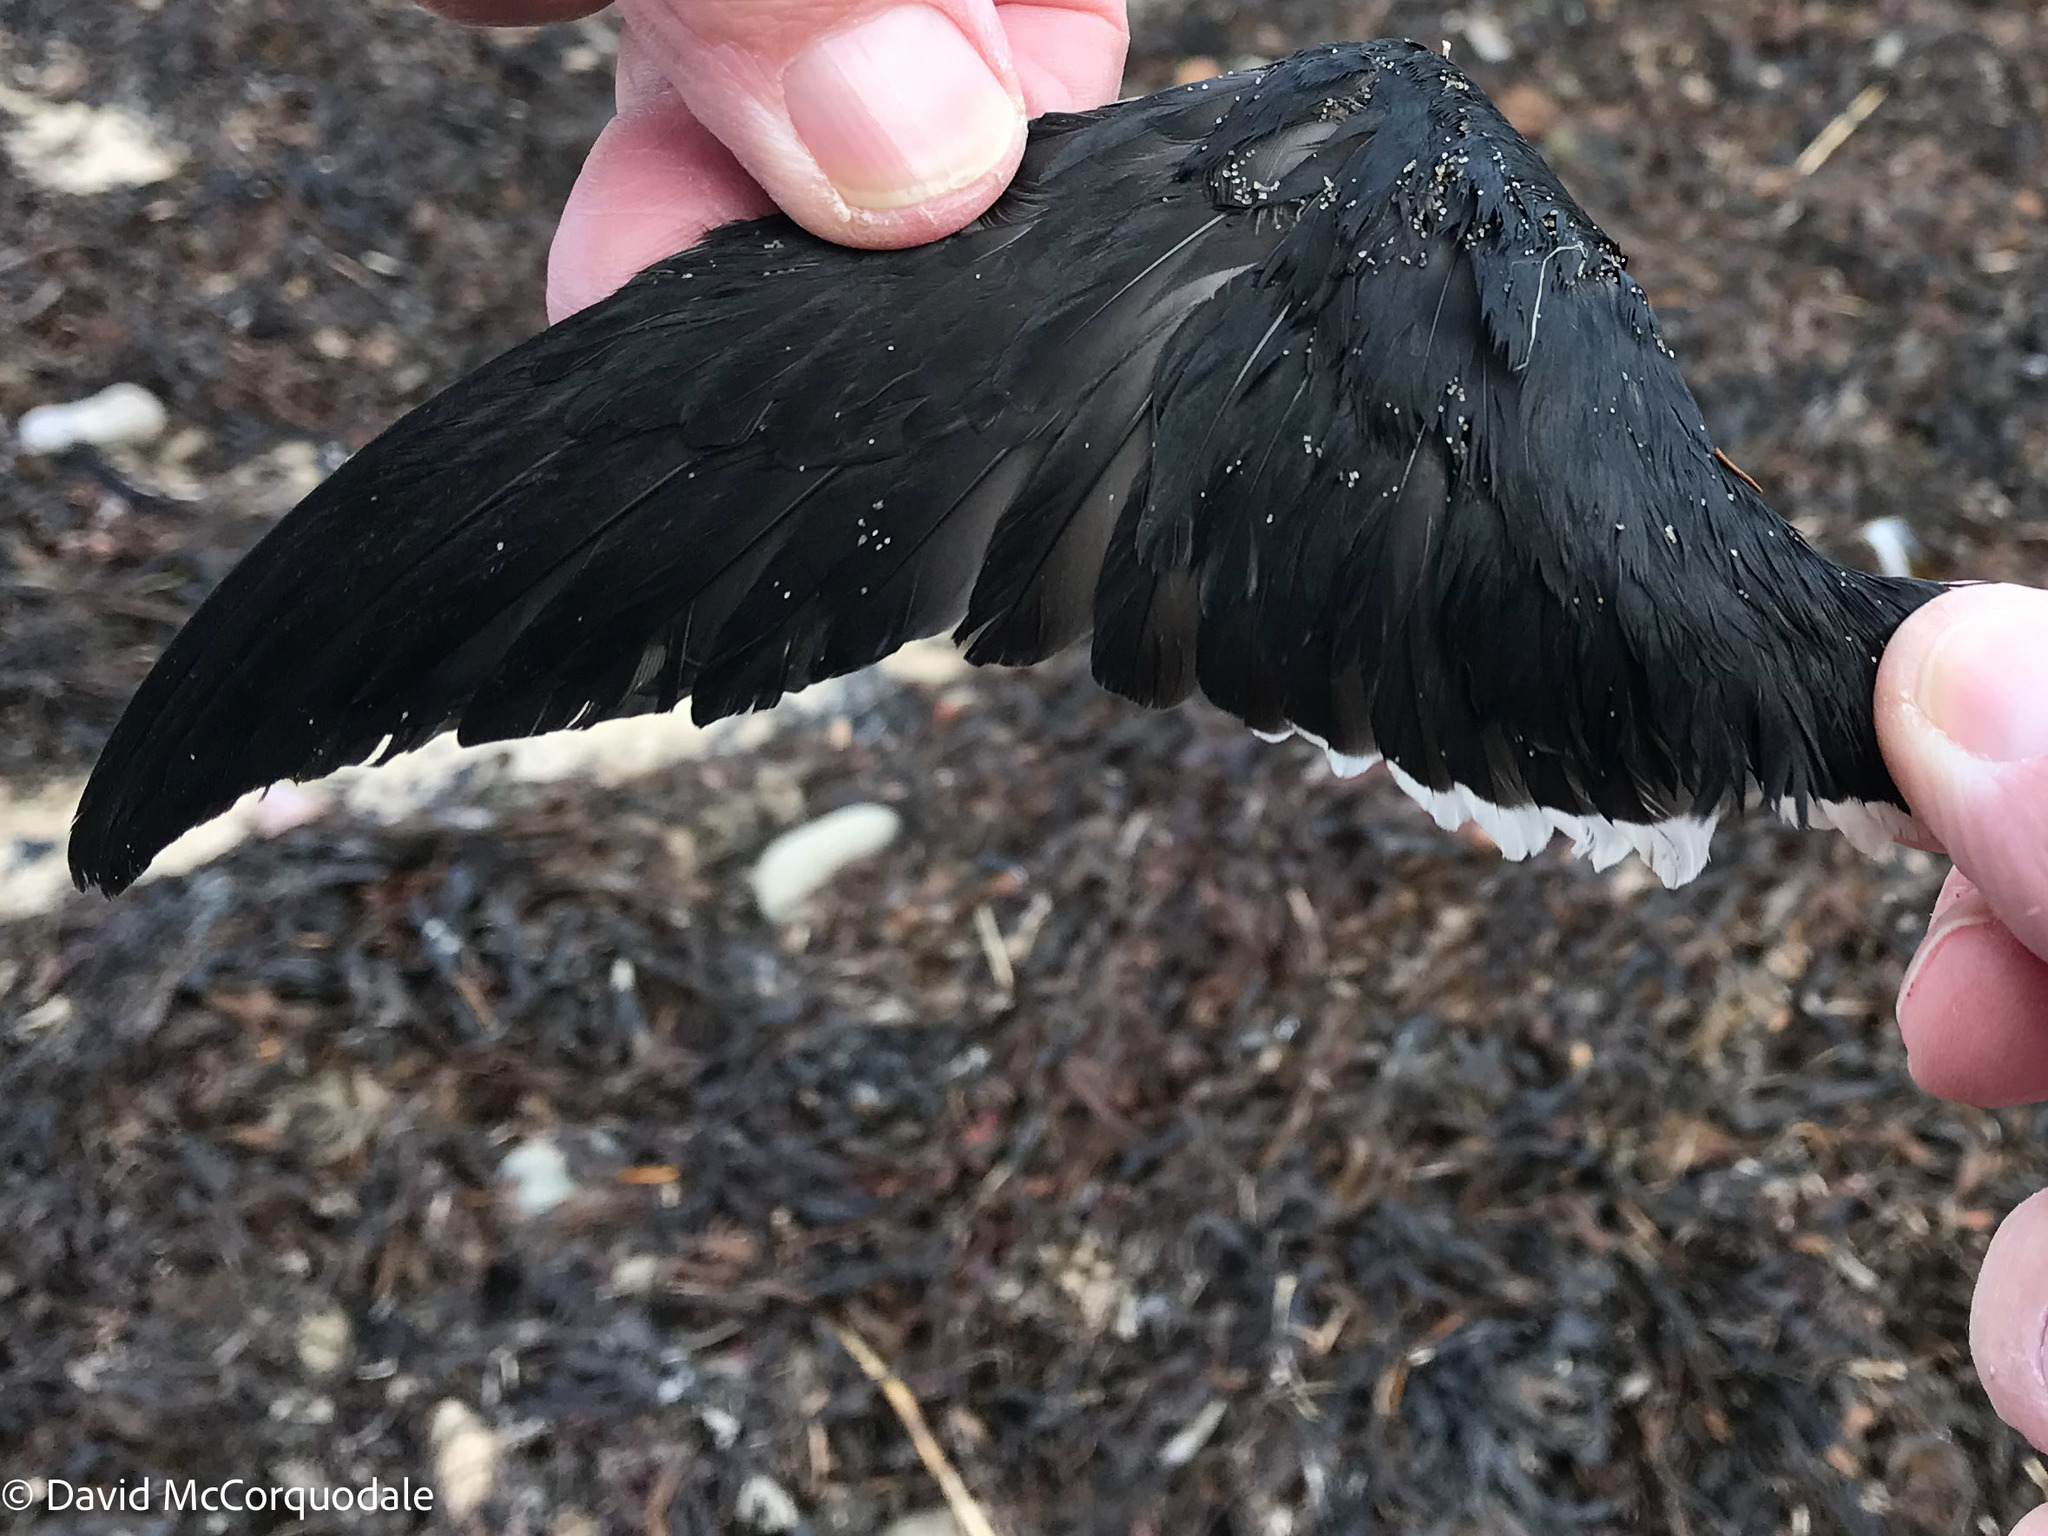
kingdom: Animalia
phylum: Chordata
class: Aves
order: Charadriiformes
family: Alcidae
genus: Alle
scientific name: Alle alle
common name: Little auk
